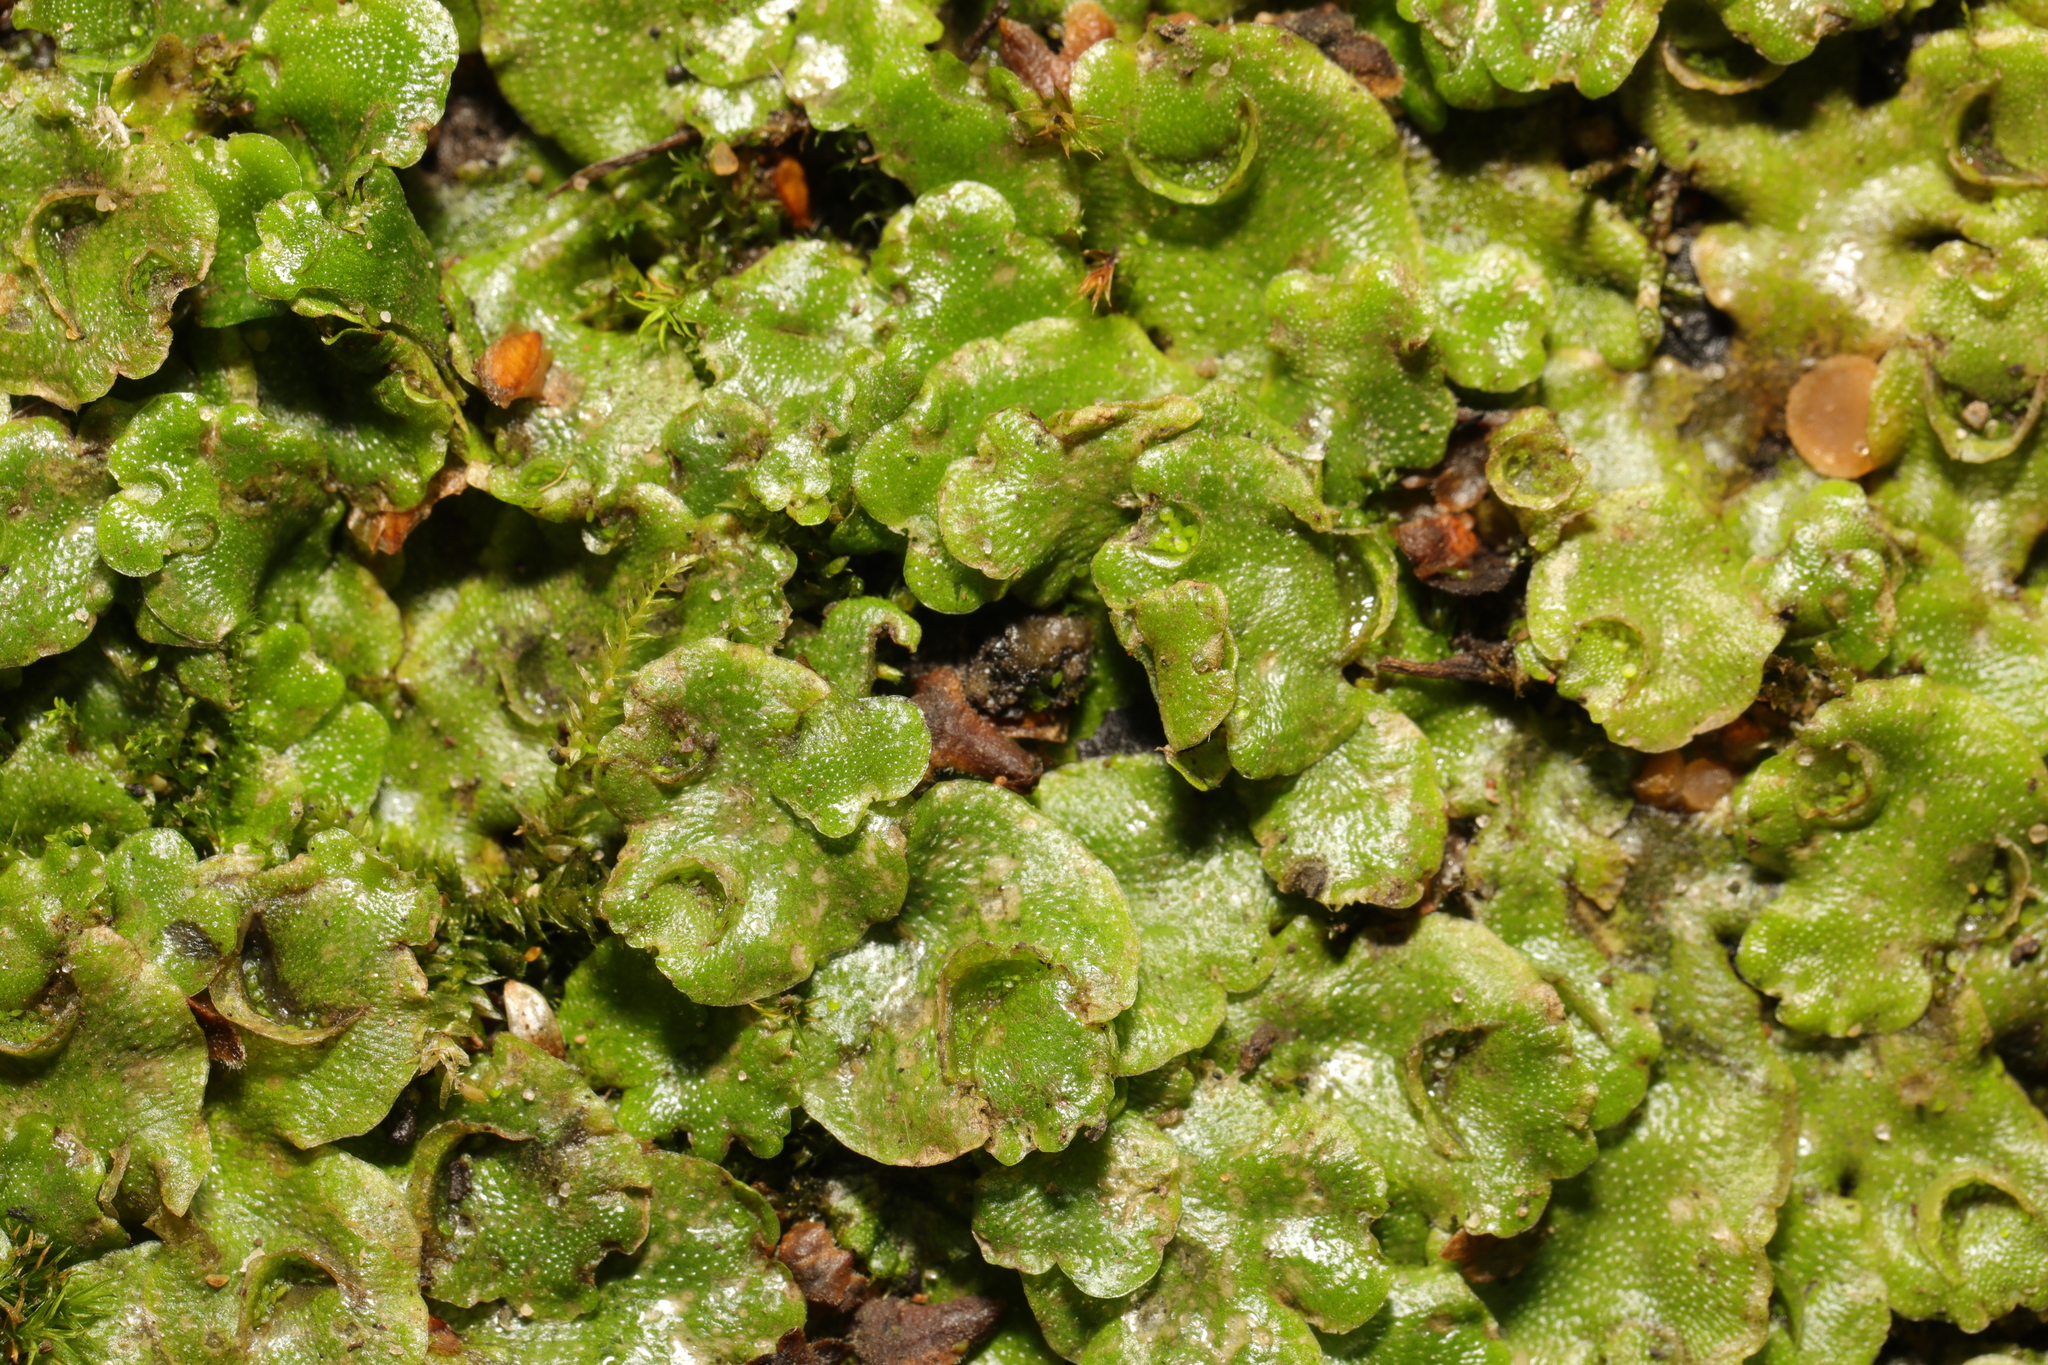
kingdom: Plantae
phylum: Marchantiophyta
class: Marchantiopsida
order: Lunulariales
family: Lunulariaceae
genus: Lunularia
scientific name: Lunularia cruciata
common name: Crescent-cup liverwort
